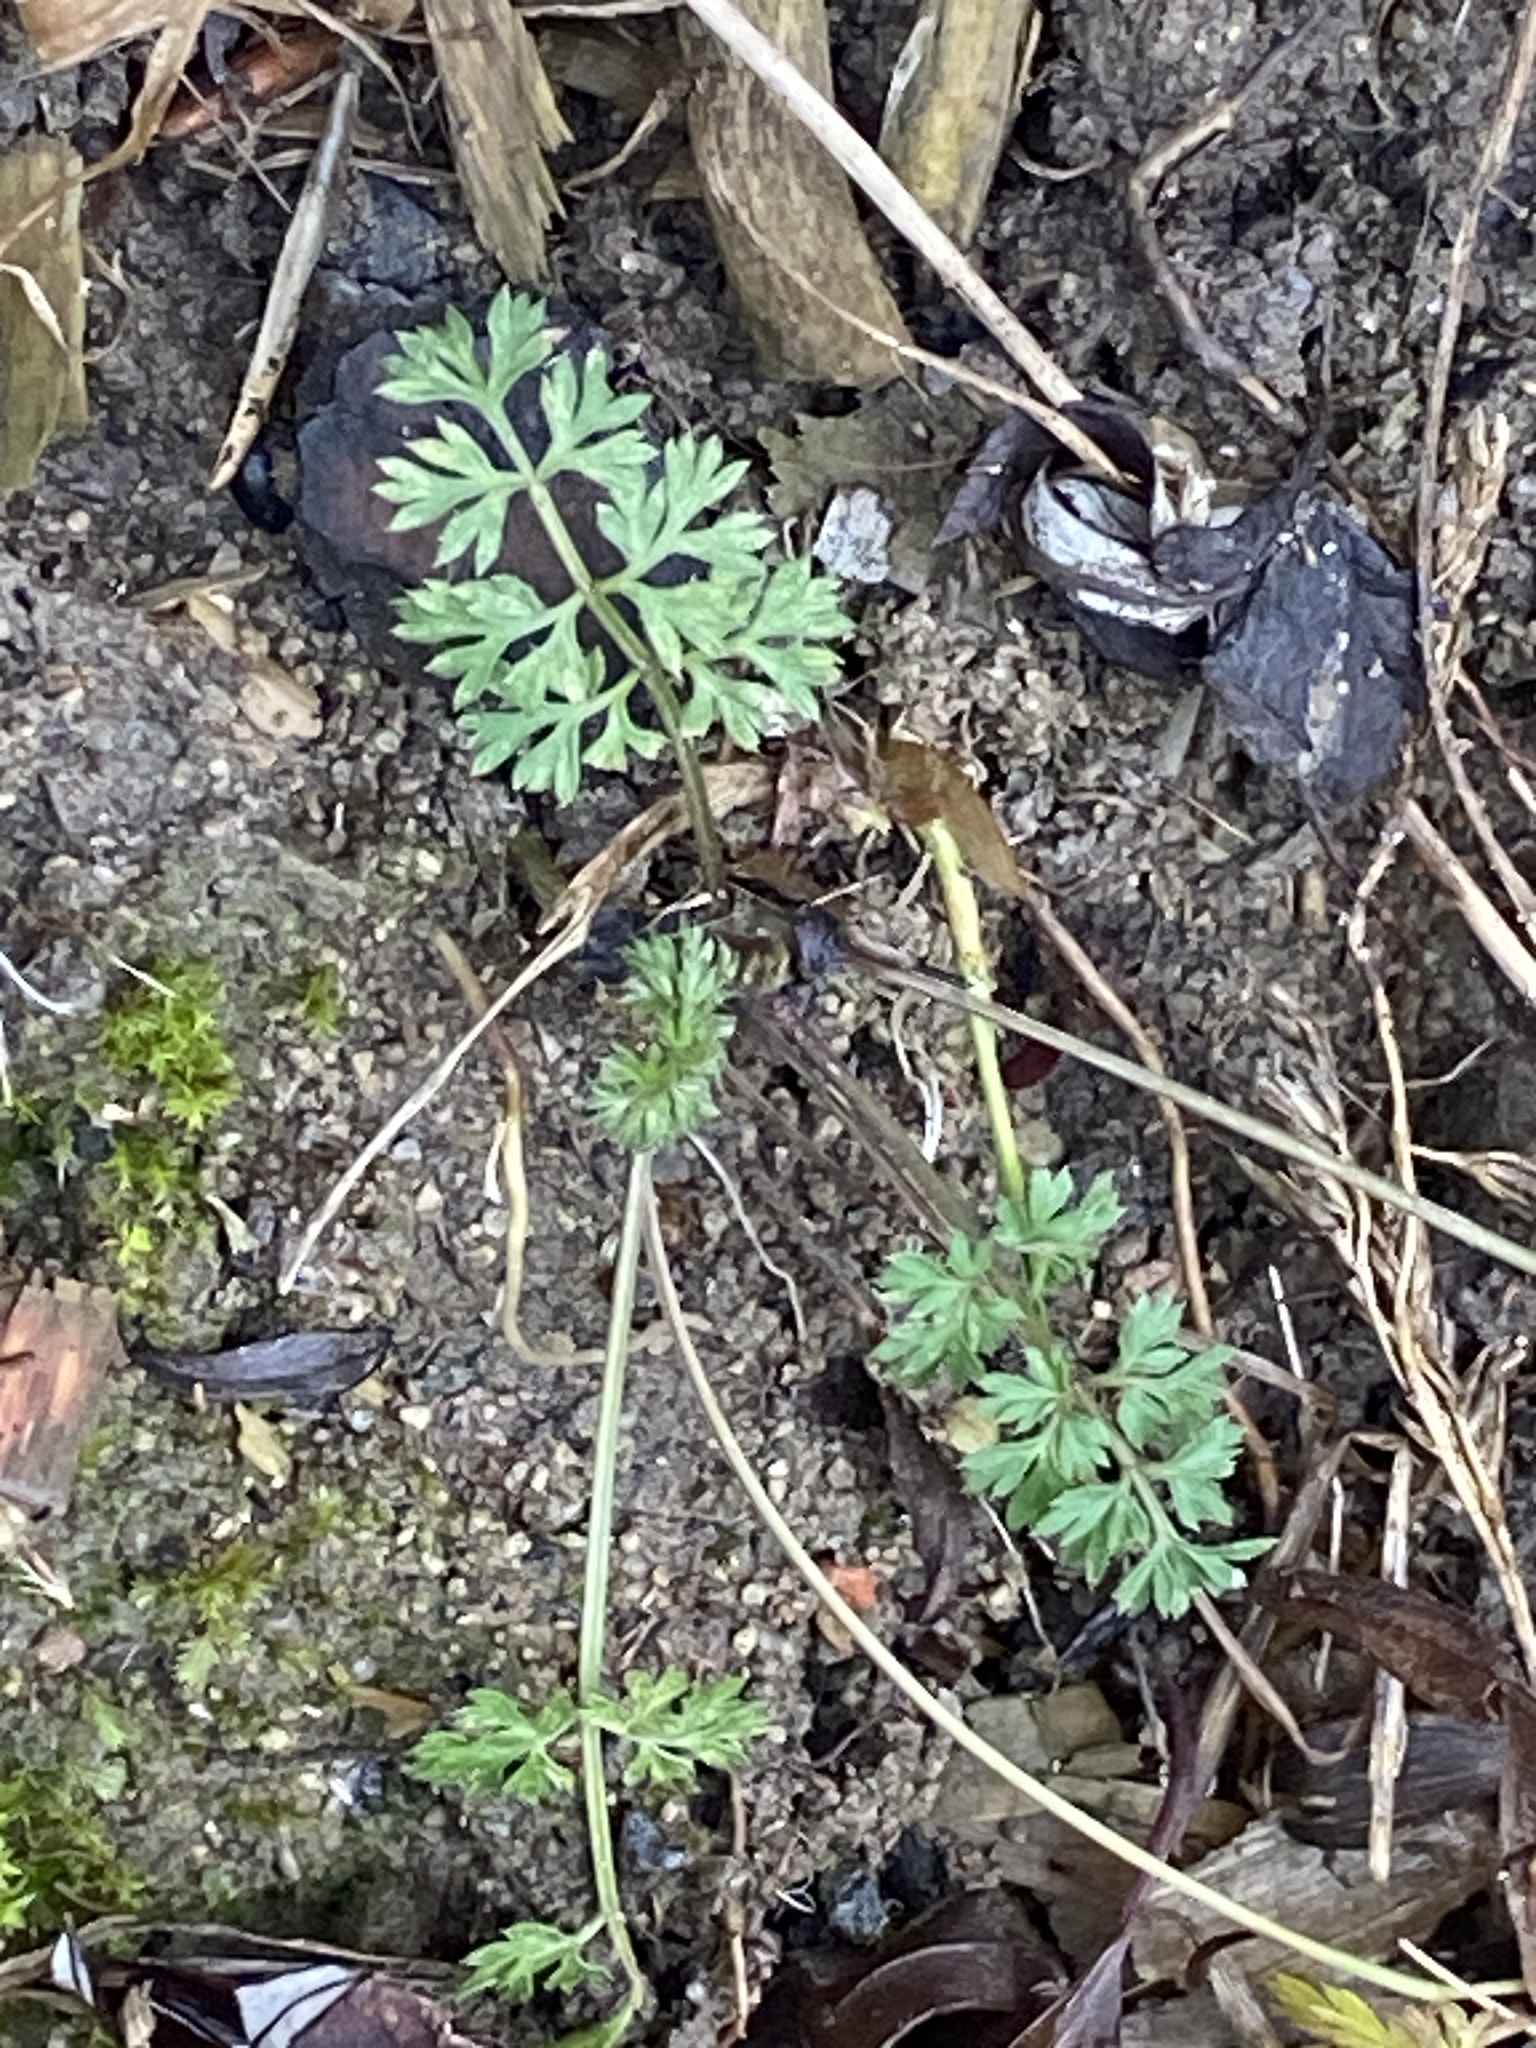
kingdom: Plantae
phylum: Tracheophyta
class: Magnoliopsida
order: Apiales
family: Apiaceae
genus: Daucus
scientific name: Daucus carota
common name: Wild carrot
